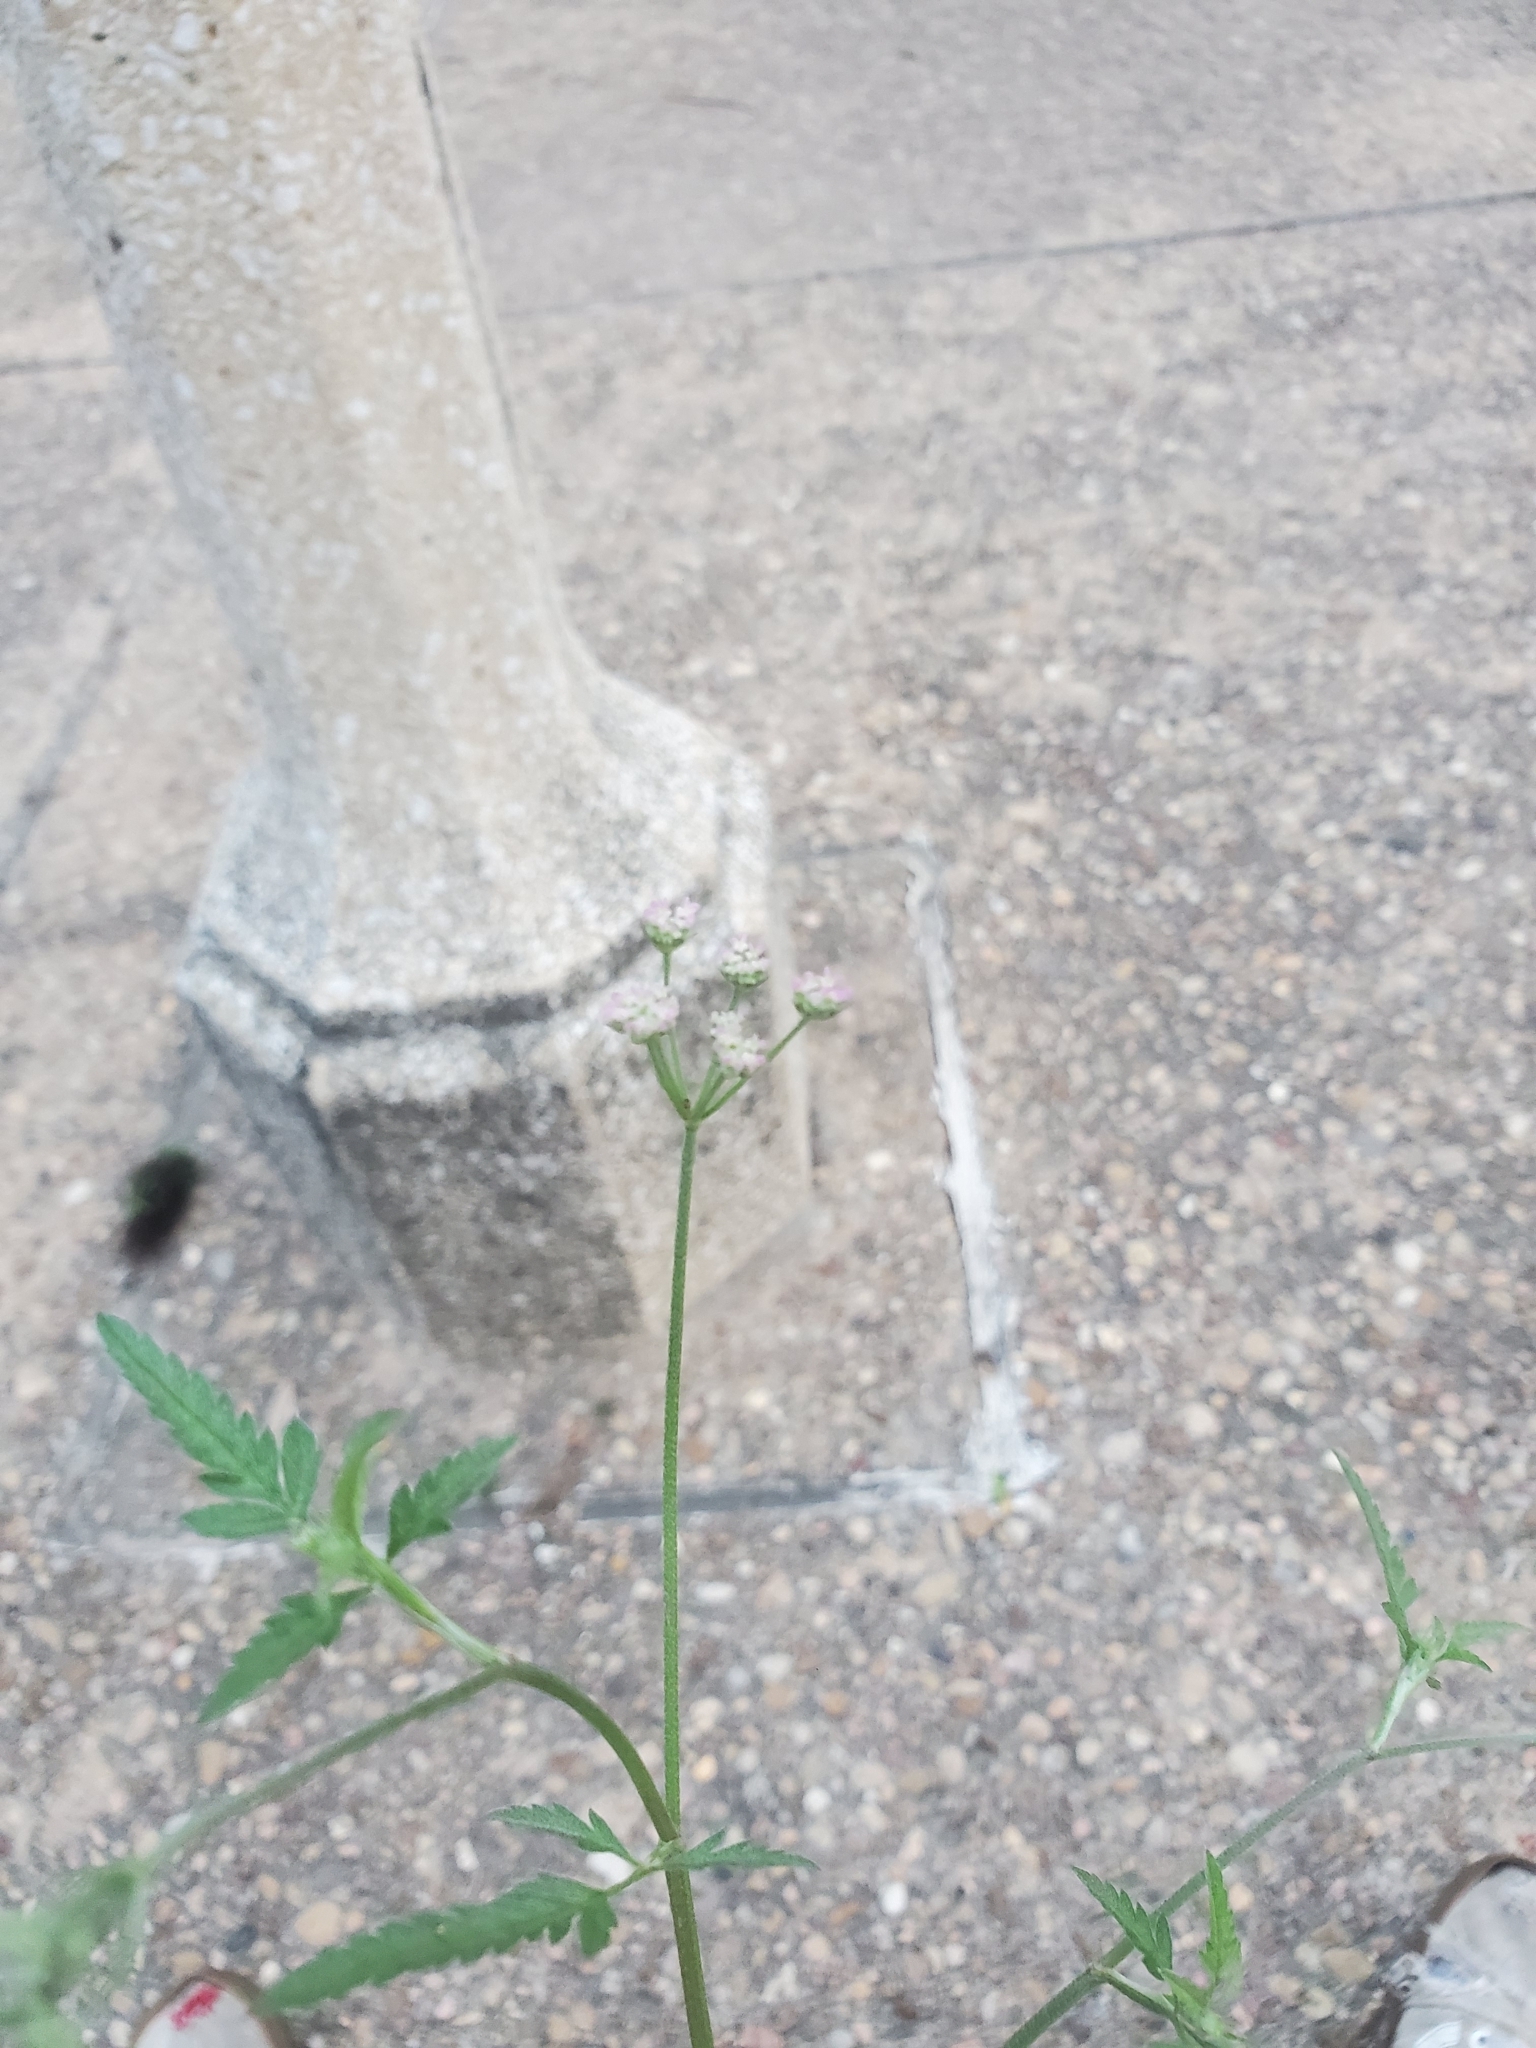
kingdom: Plantae
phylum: Tracheophyta
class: Magnoliopsida
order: Apiales
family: Apiaceae
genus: Torilis
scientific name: Torilis arvensis
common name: Spreading hedge-parsley
